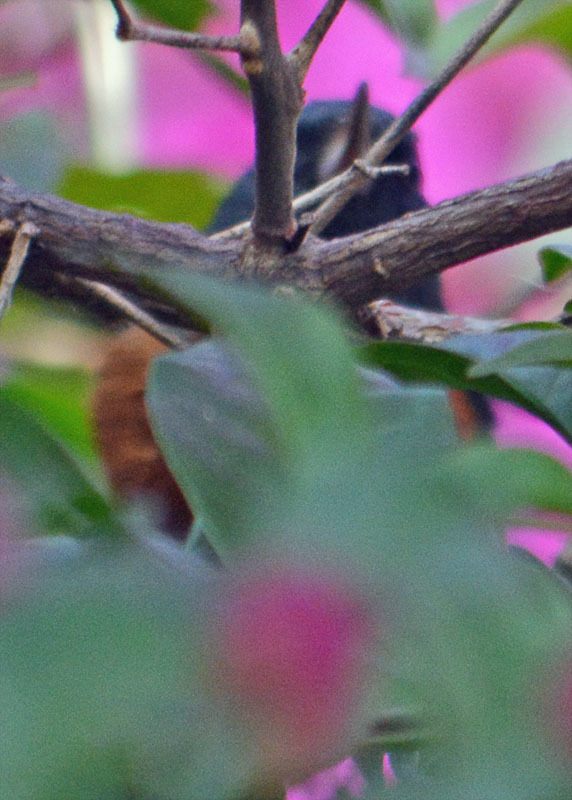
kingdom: Animalia
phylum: Chordata
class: Aves
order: Passeriformes
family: Thraupidae
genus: Diglossa
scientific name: Diglossa baritula
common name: Cinnamon-bellied flowerpiercer
